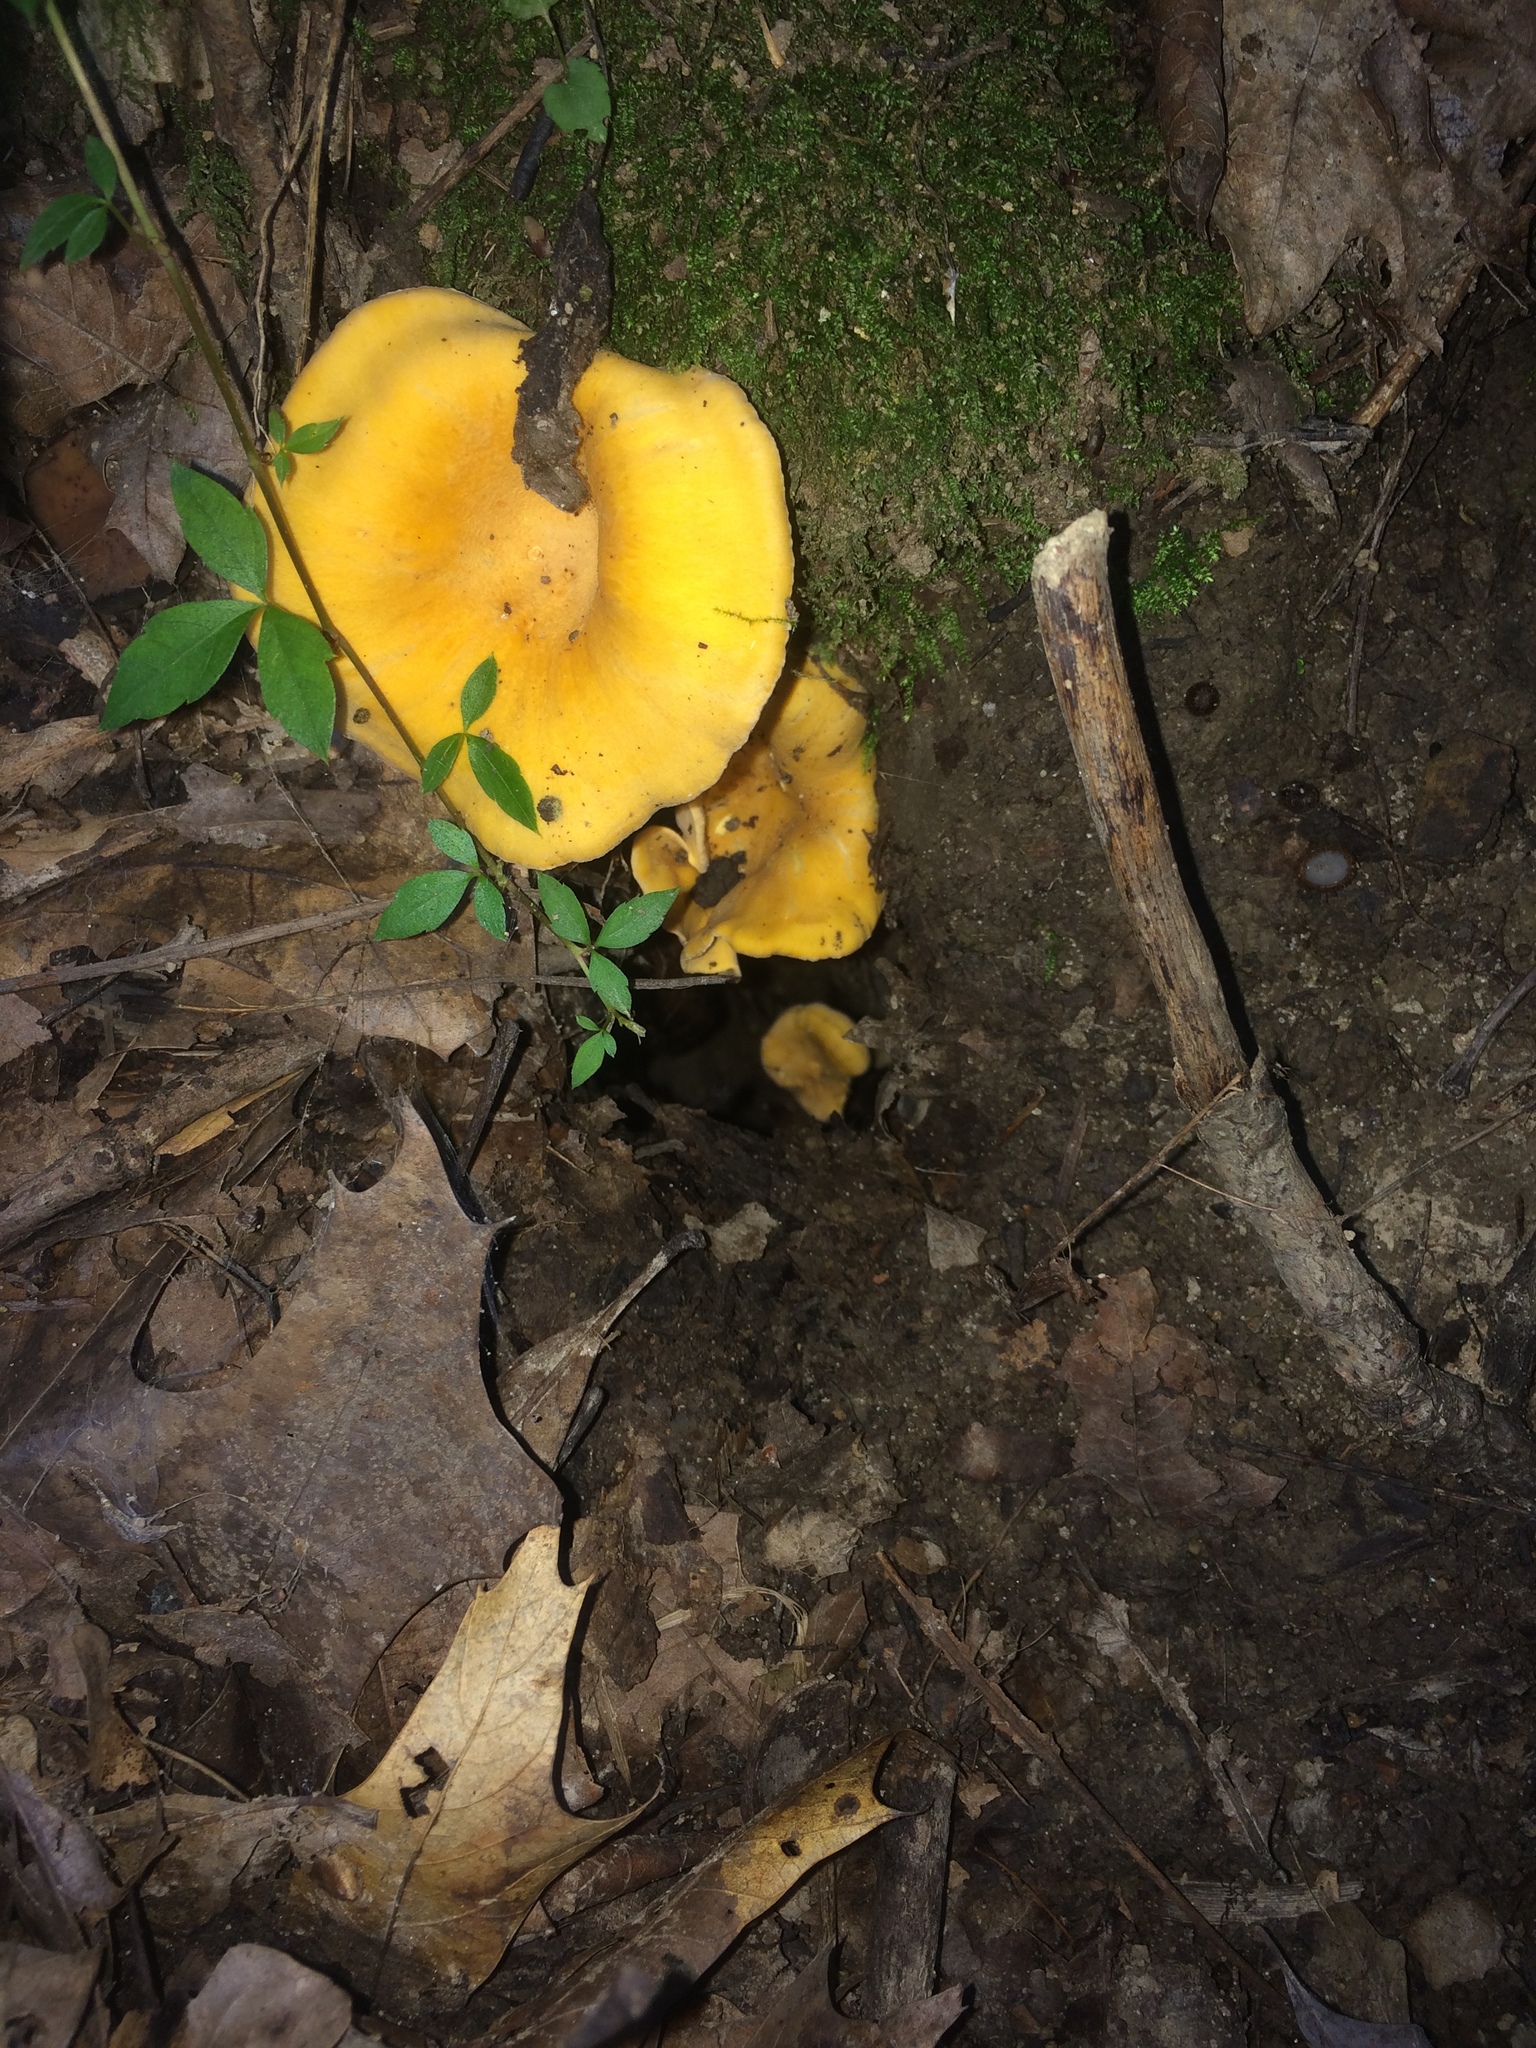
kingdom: Fungi
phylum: Basidiomycota
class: Agaricomycetes
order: Cantharellales
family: Hydnaceae
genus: Cantharellus
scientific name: Cantharellus flavolateritius
